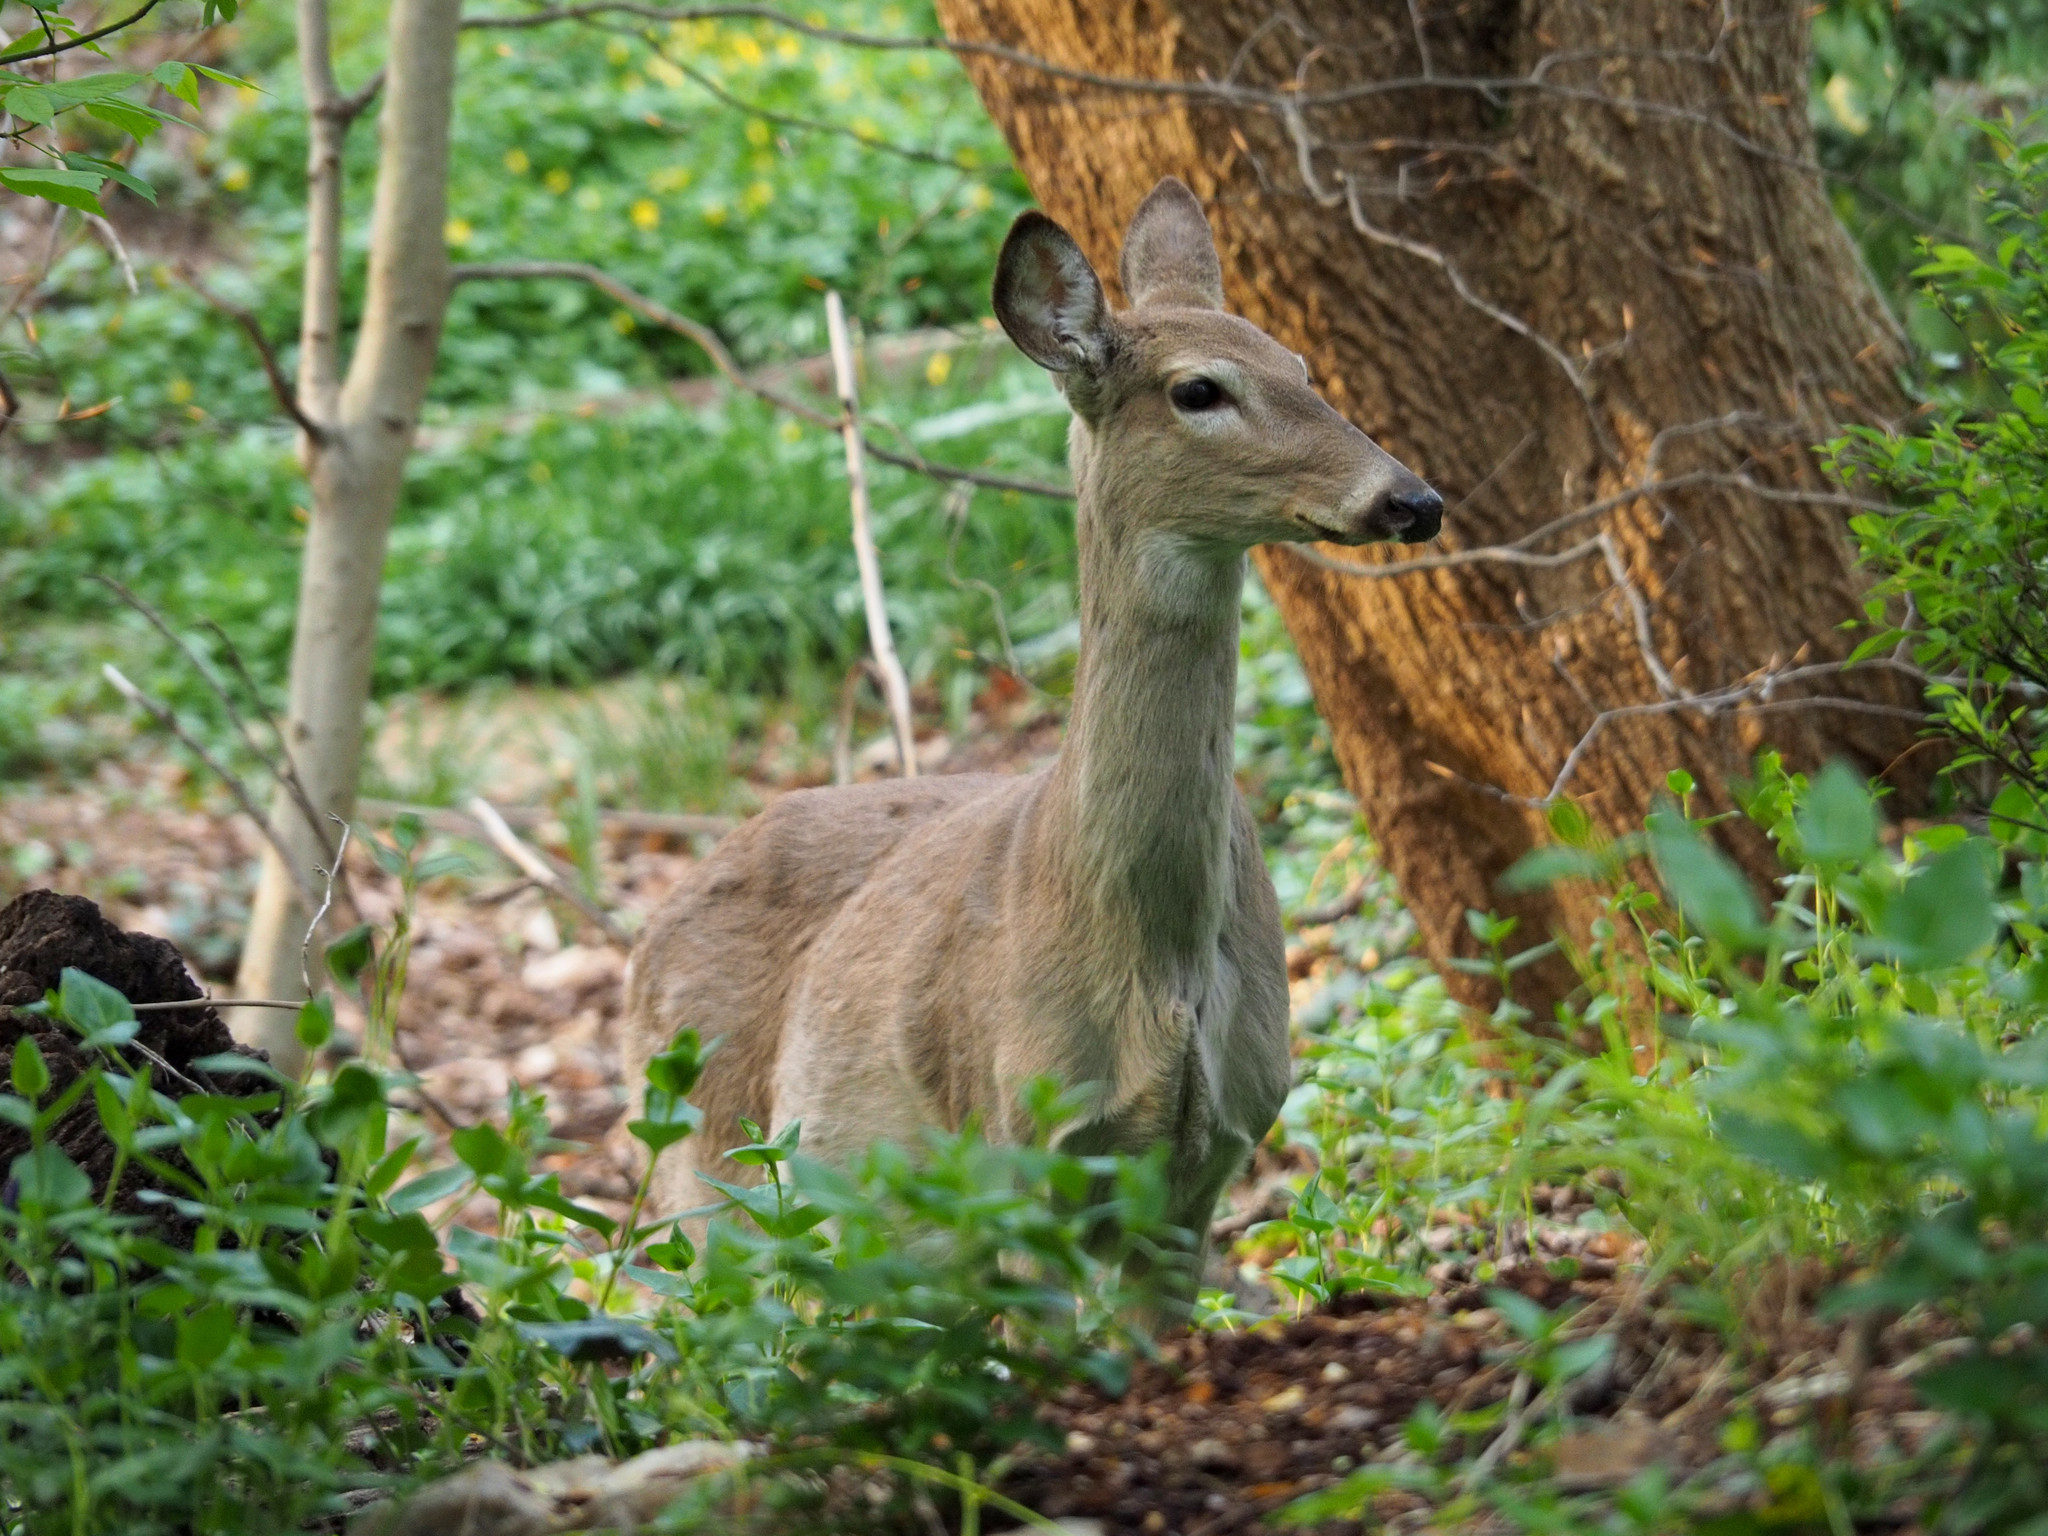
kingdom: Animalia
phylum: Chordata
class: Mammalia
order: Artiodactyla
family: Cervidae
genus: Odocoileus
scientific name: Odocoileus virginianus
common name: White-tailed deer
